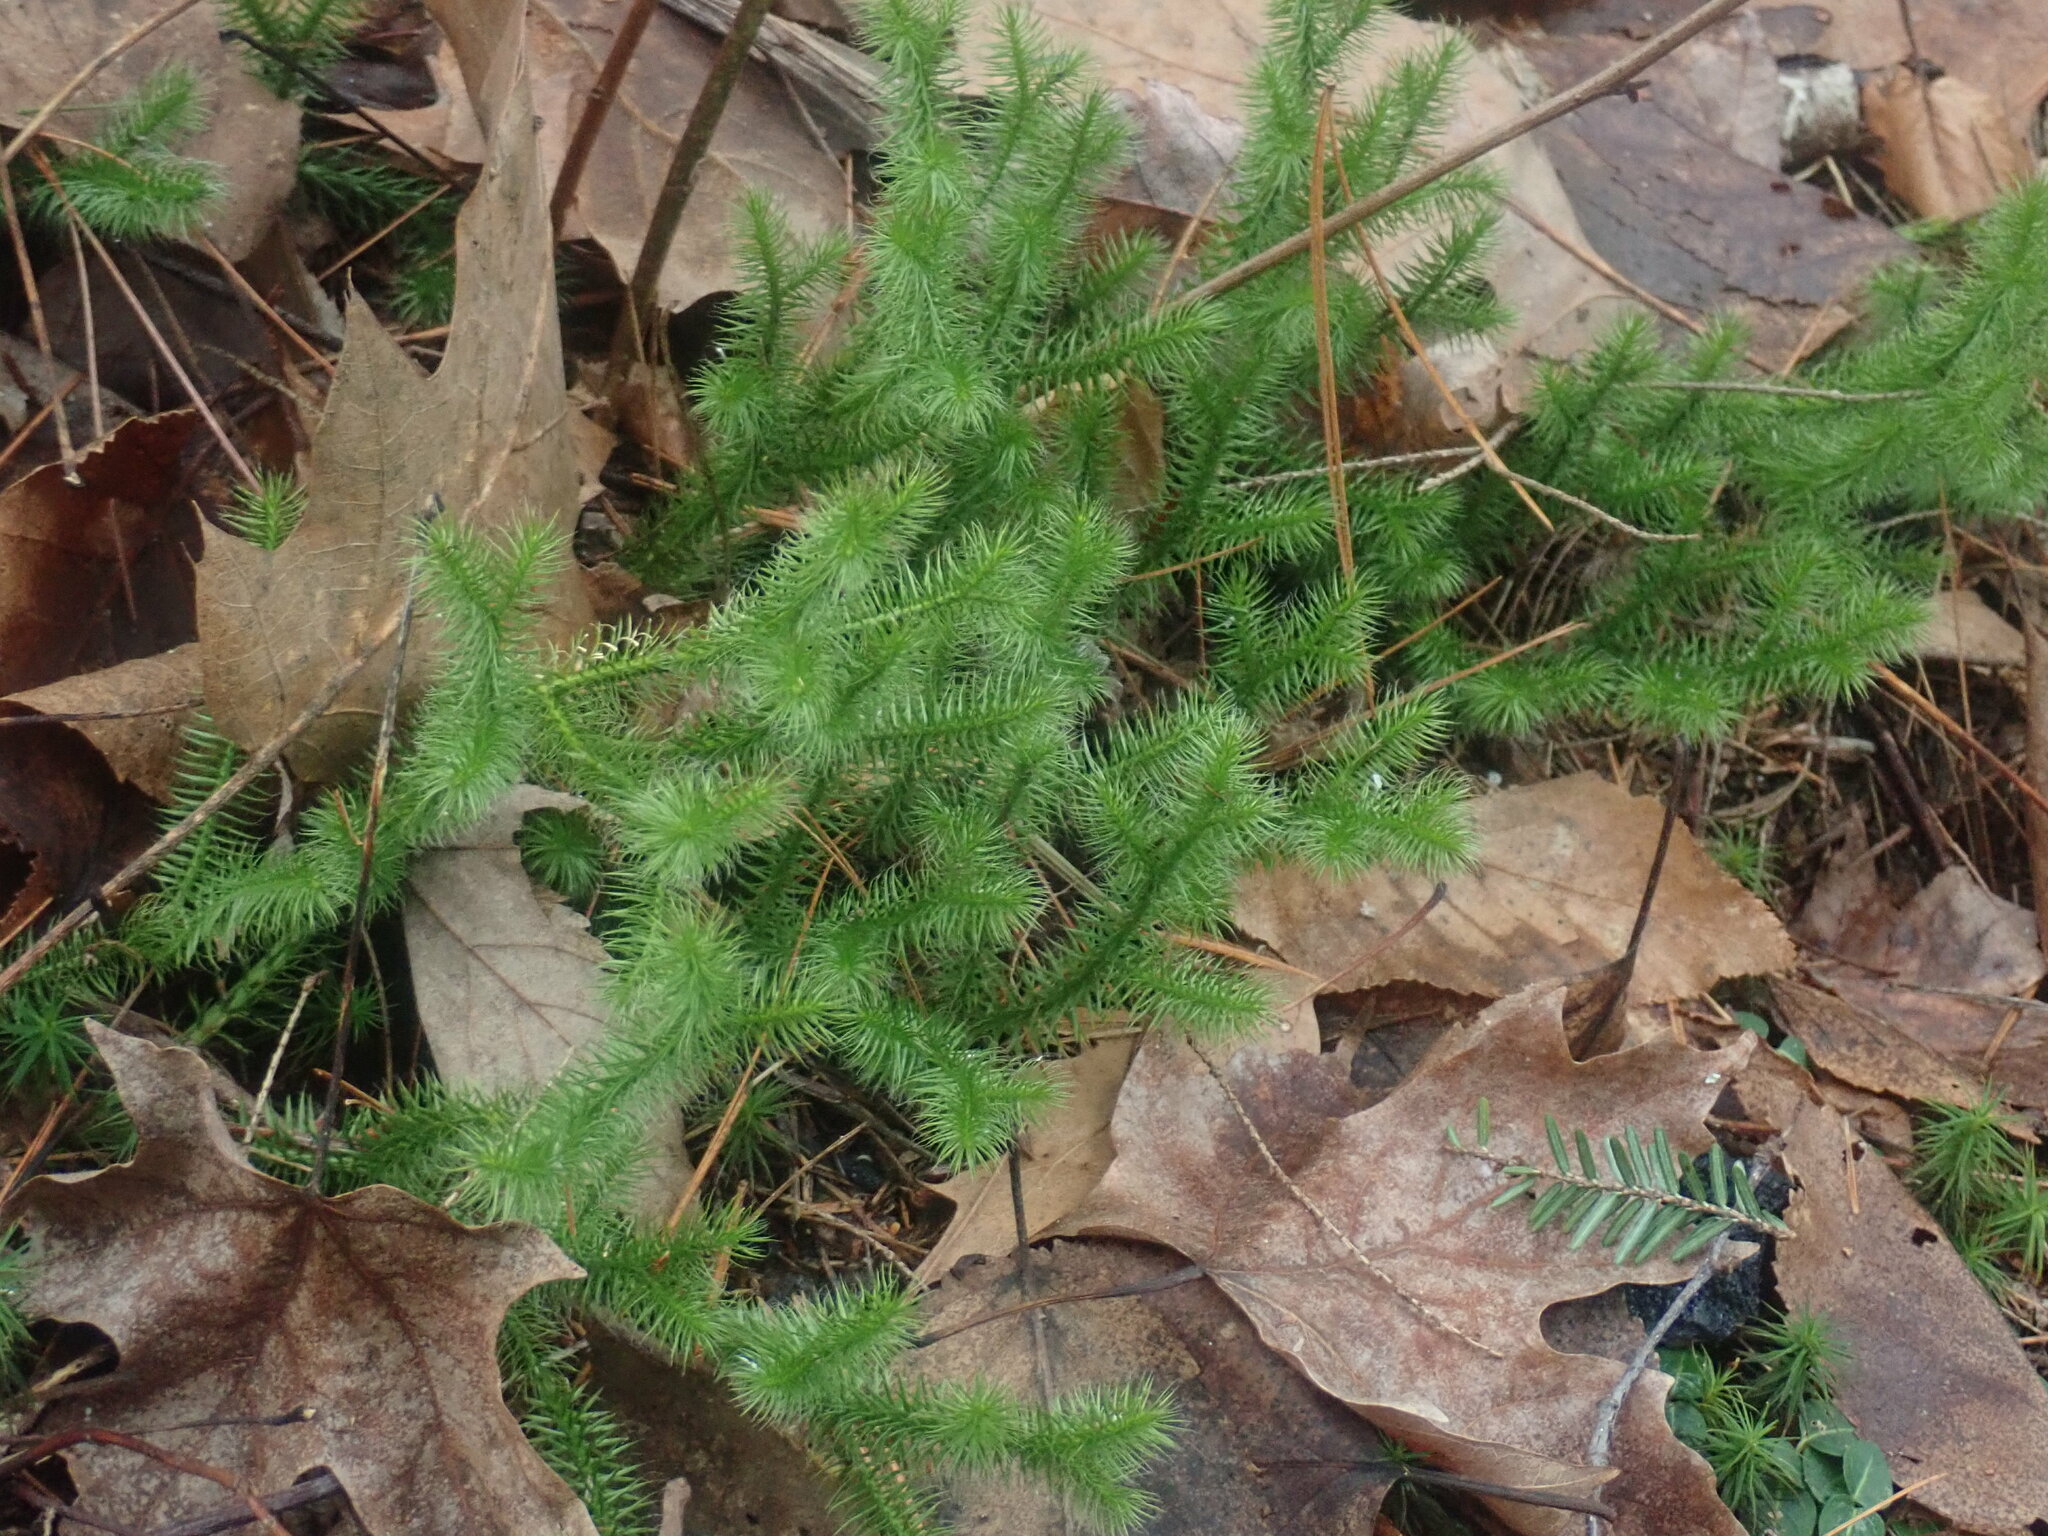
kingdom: Plantae
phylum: Tracheophyta
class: Lycopodiopsida
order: Lycopodiales
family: Lycopodiaceae
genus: Lycopodium
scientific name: Lycopodium clavatum
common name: Stag's-horn clubmoss
